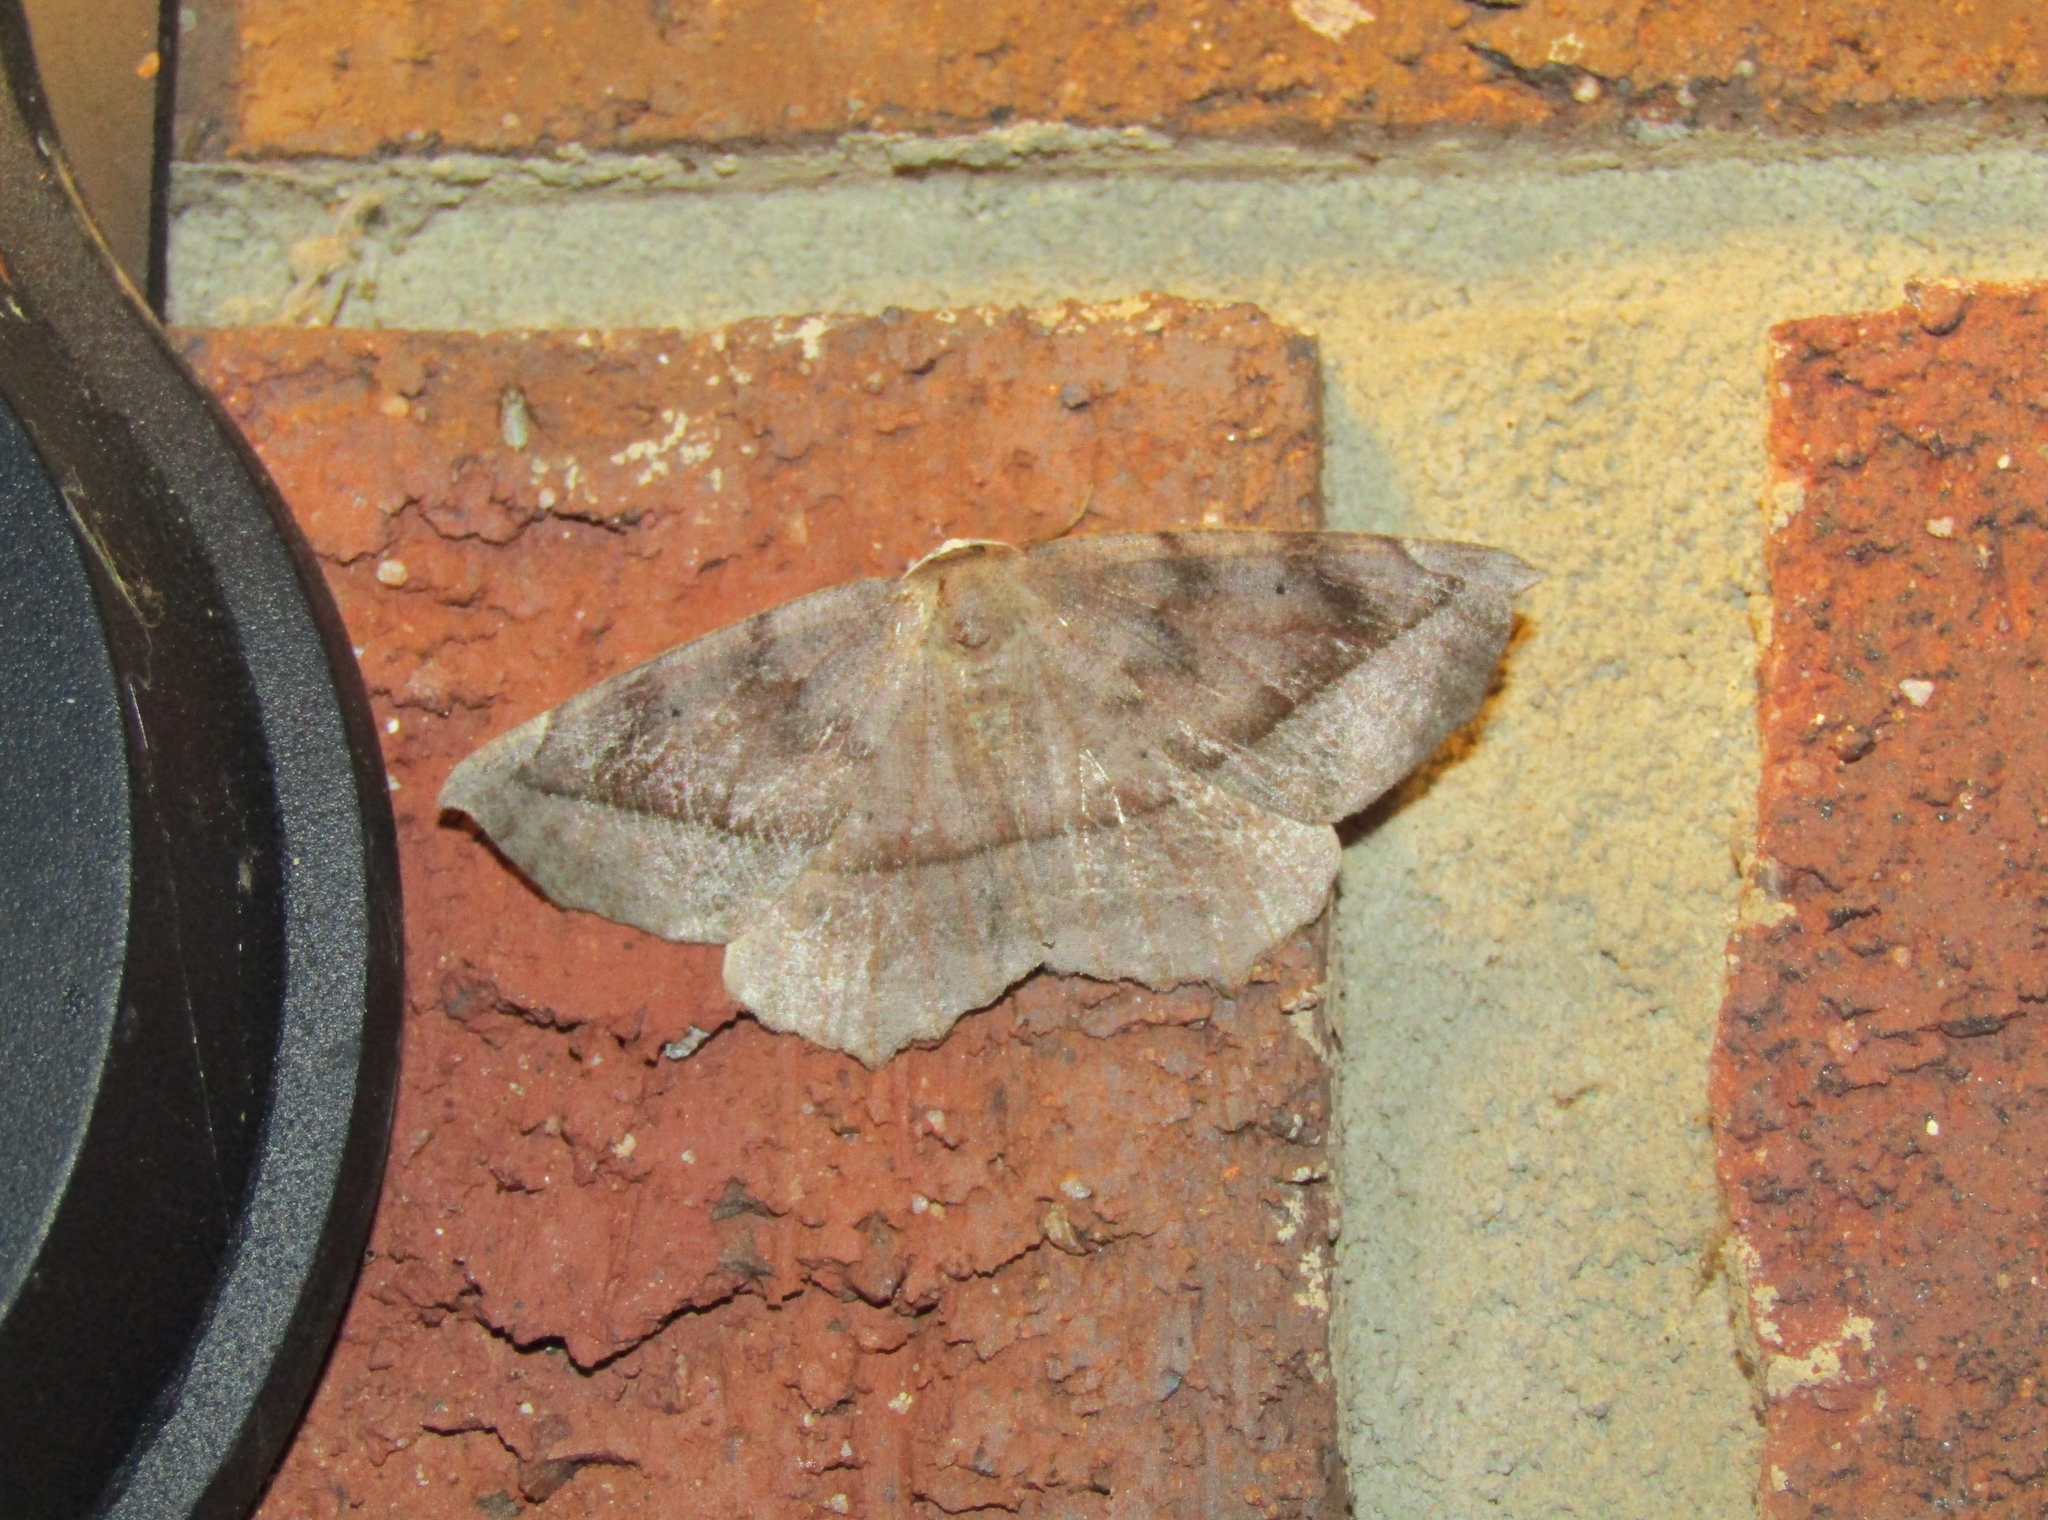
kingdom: Animalia
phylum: Arthropoda
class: Insecta
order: Lepidoptera
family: Geometridae
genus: Eutrapela
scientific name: Eutrapela clemataria
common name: Curved-toothed geometer
